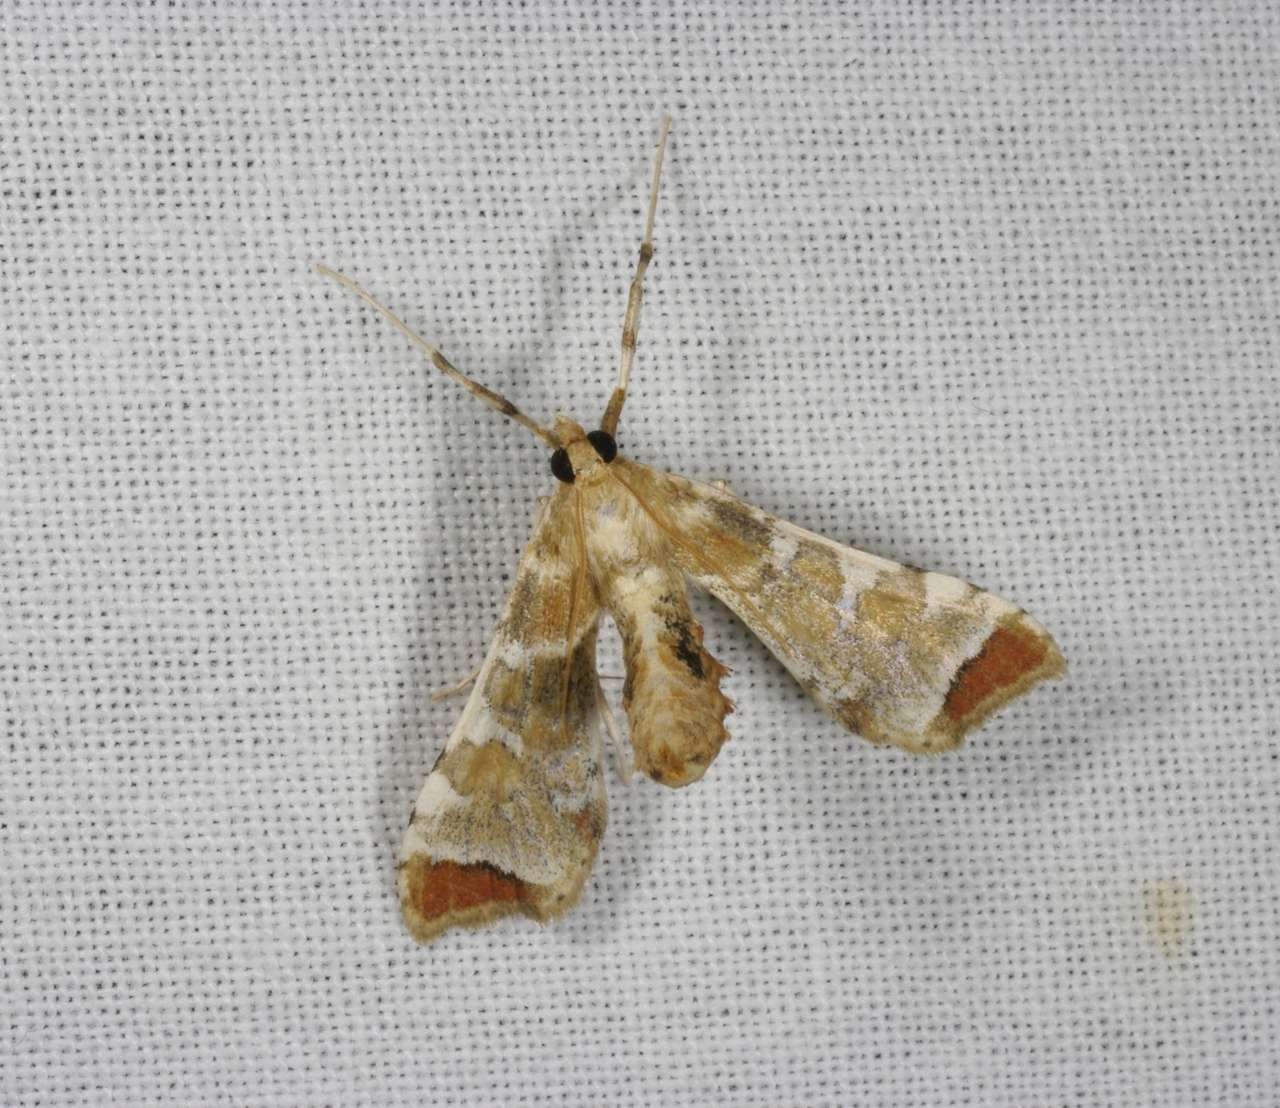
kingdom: Animalia
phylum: Arthropoda
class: Insecta
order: Lepidoptera
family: Crambidae
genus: Sceliodes
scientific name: Sceliodes cordalis
